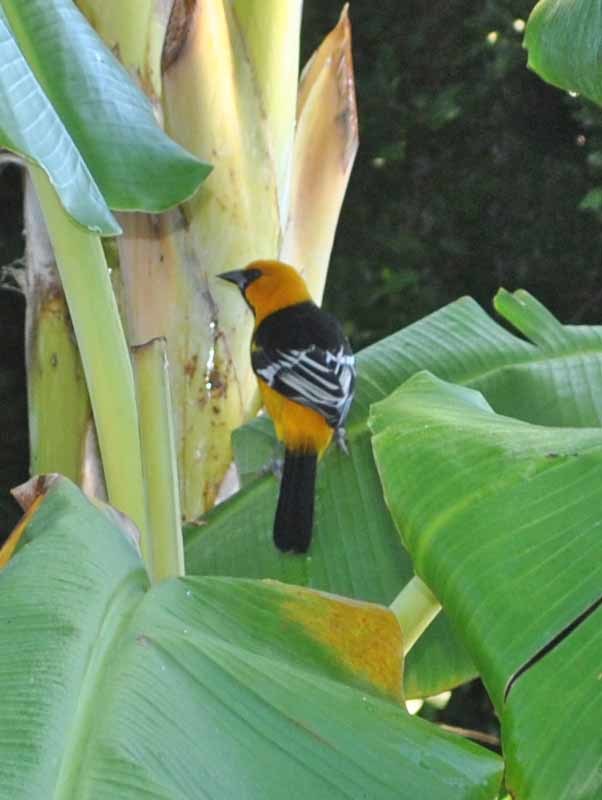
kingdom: Animalia
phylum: Chordata
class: Aves
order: Passeriformes
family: Icteridae
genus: Icterus
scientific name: Icterus gularis
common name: Altamira oriole
